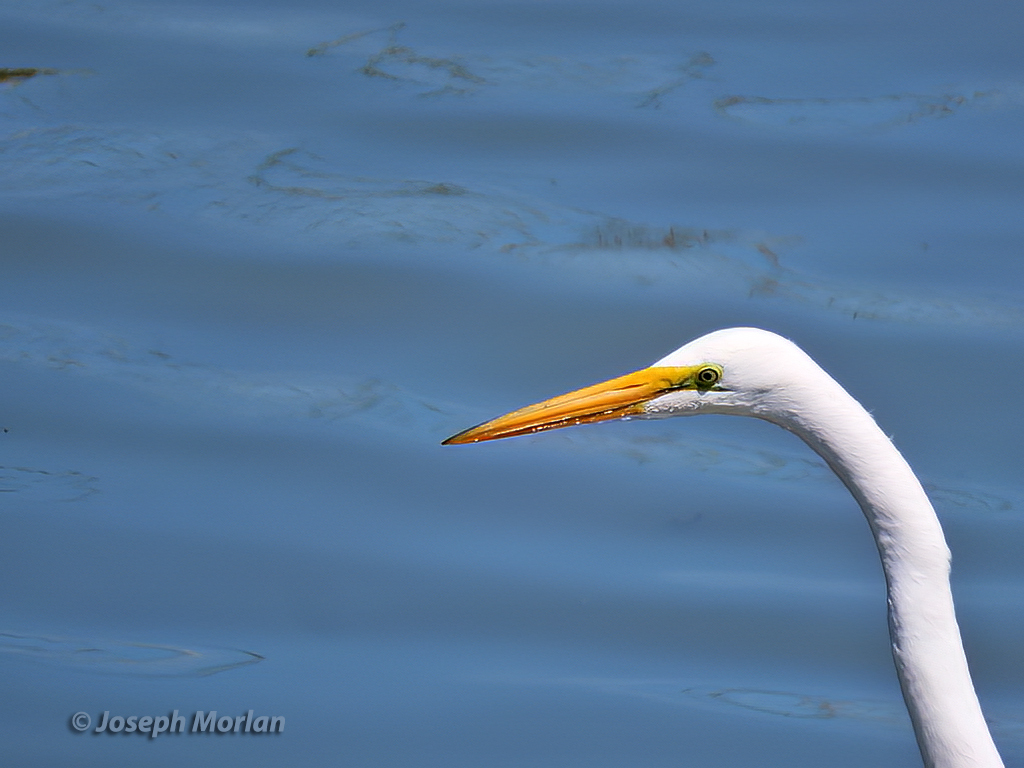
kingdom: Animalia
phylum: Chordata
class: Aves
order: Pelecaniformes
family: Ardeidae
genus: Ardea
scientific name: Ardea alba
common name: Great egret
